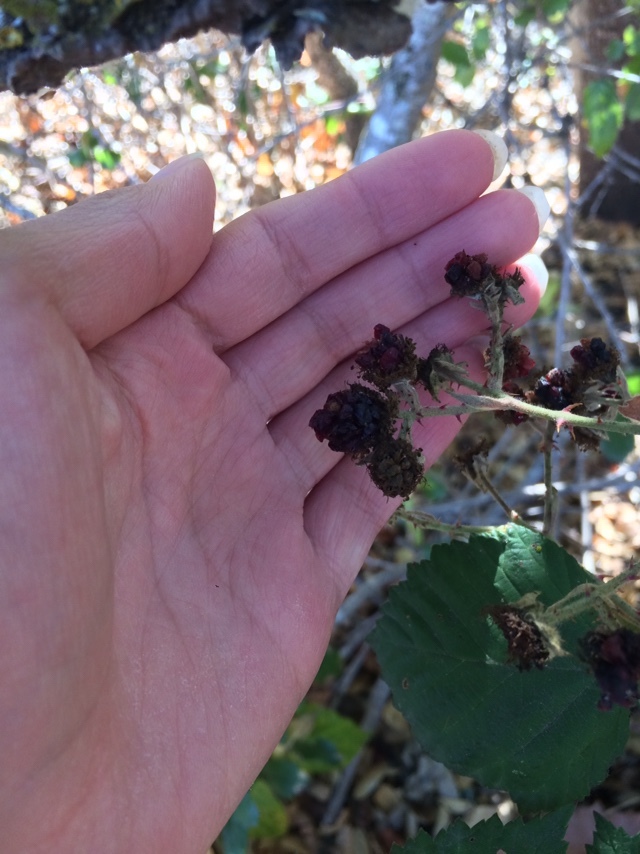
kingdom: Plantae
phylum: Tracheophyta
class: Magnoliopsida
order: Rosales
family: Rosaceae
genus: Rubus
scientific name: Rubus armeniacus
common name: Himalayan blackberry
